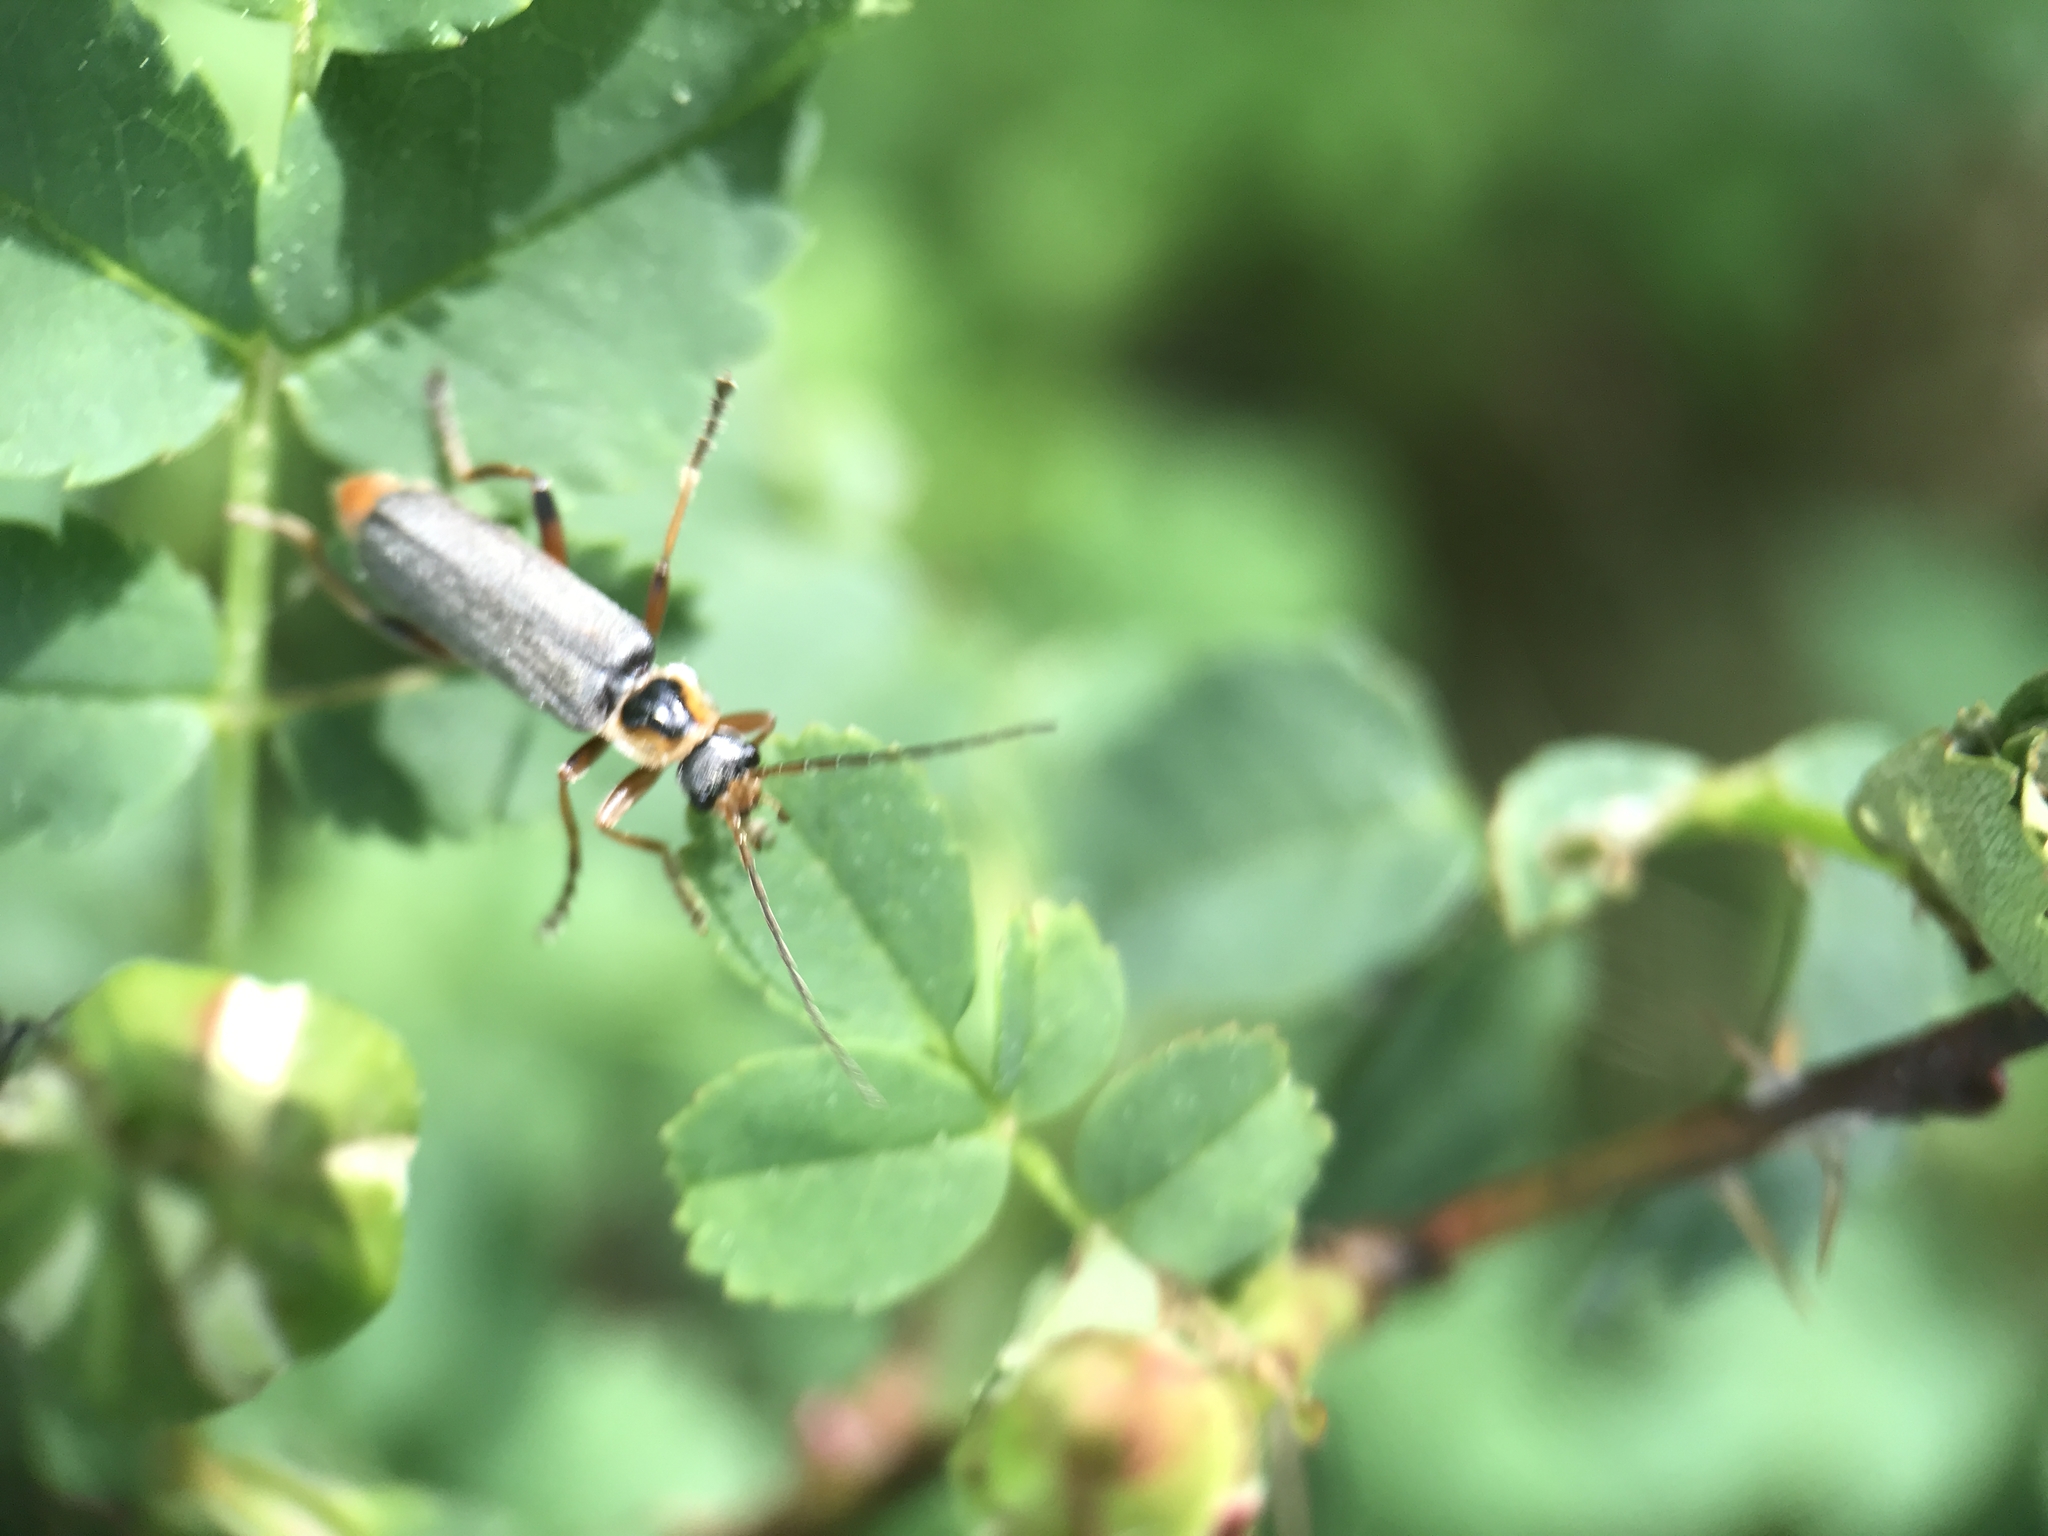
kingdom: Animalia
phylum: Arthropoda
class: Insecta
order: Coleoptera
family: Cantharidae
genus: Cantharis
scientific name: Cantharis nigricans
